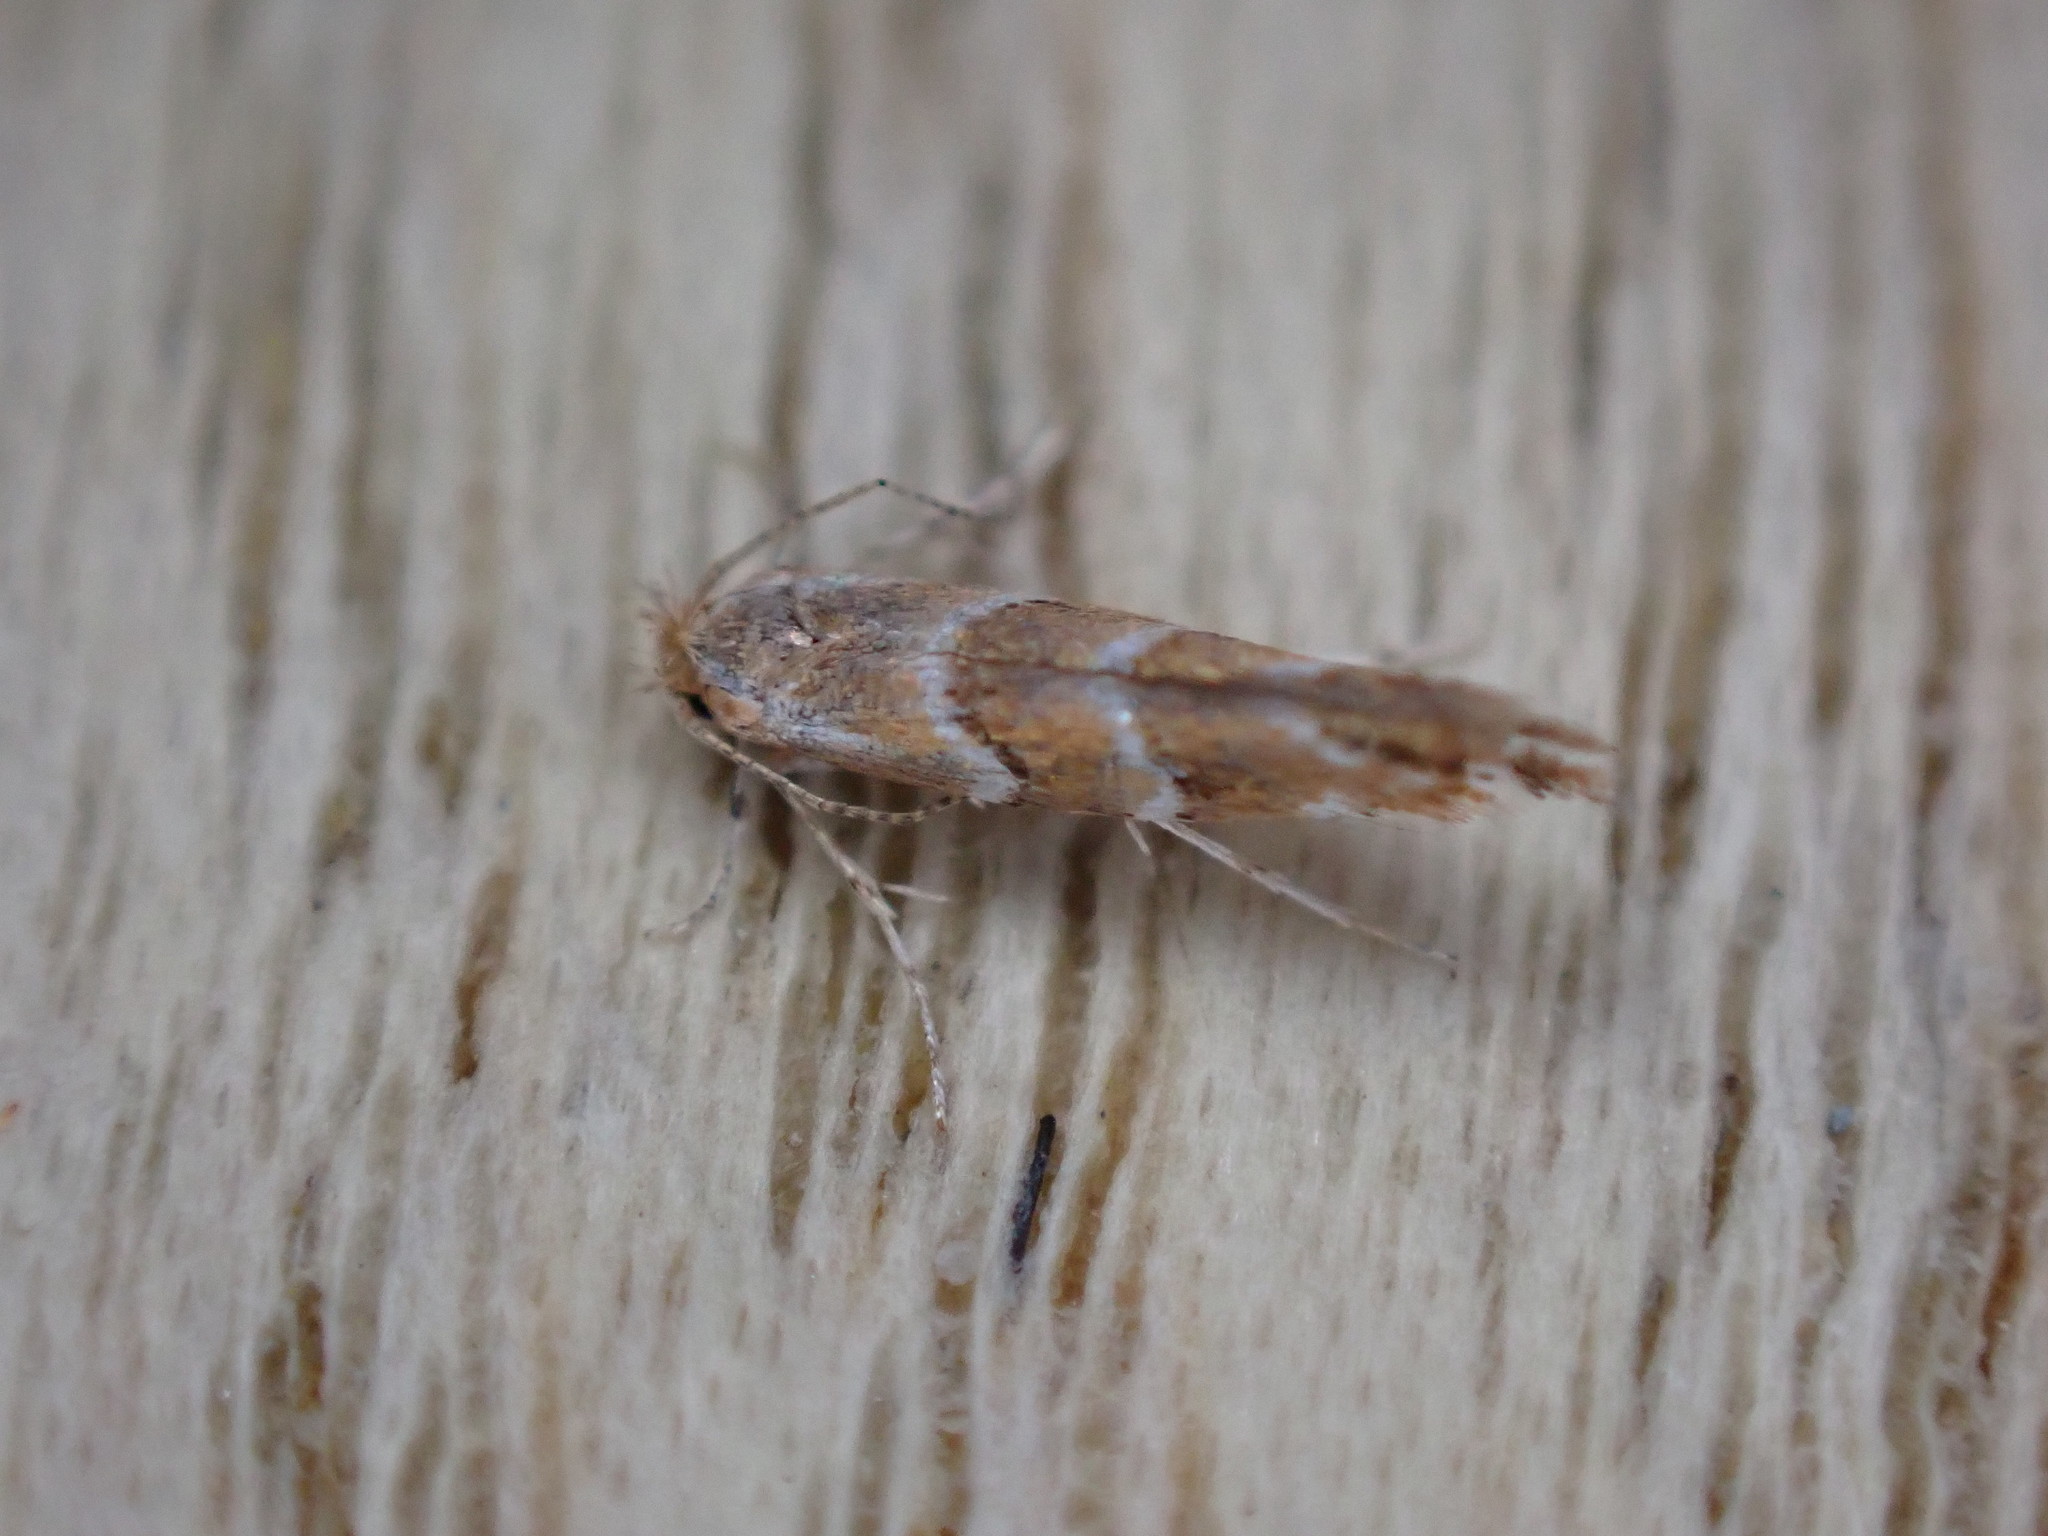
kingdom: Animalia
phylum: Arthropoda
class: Insecta
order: Lepidoptera
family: Gracillariidae
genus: Cameraria
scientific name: Cameraria ohridella
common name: Horse-chestnut leaf-miner
